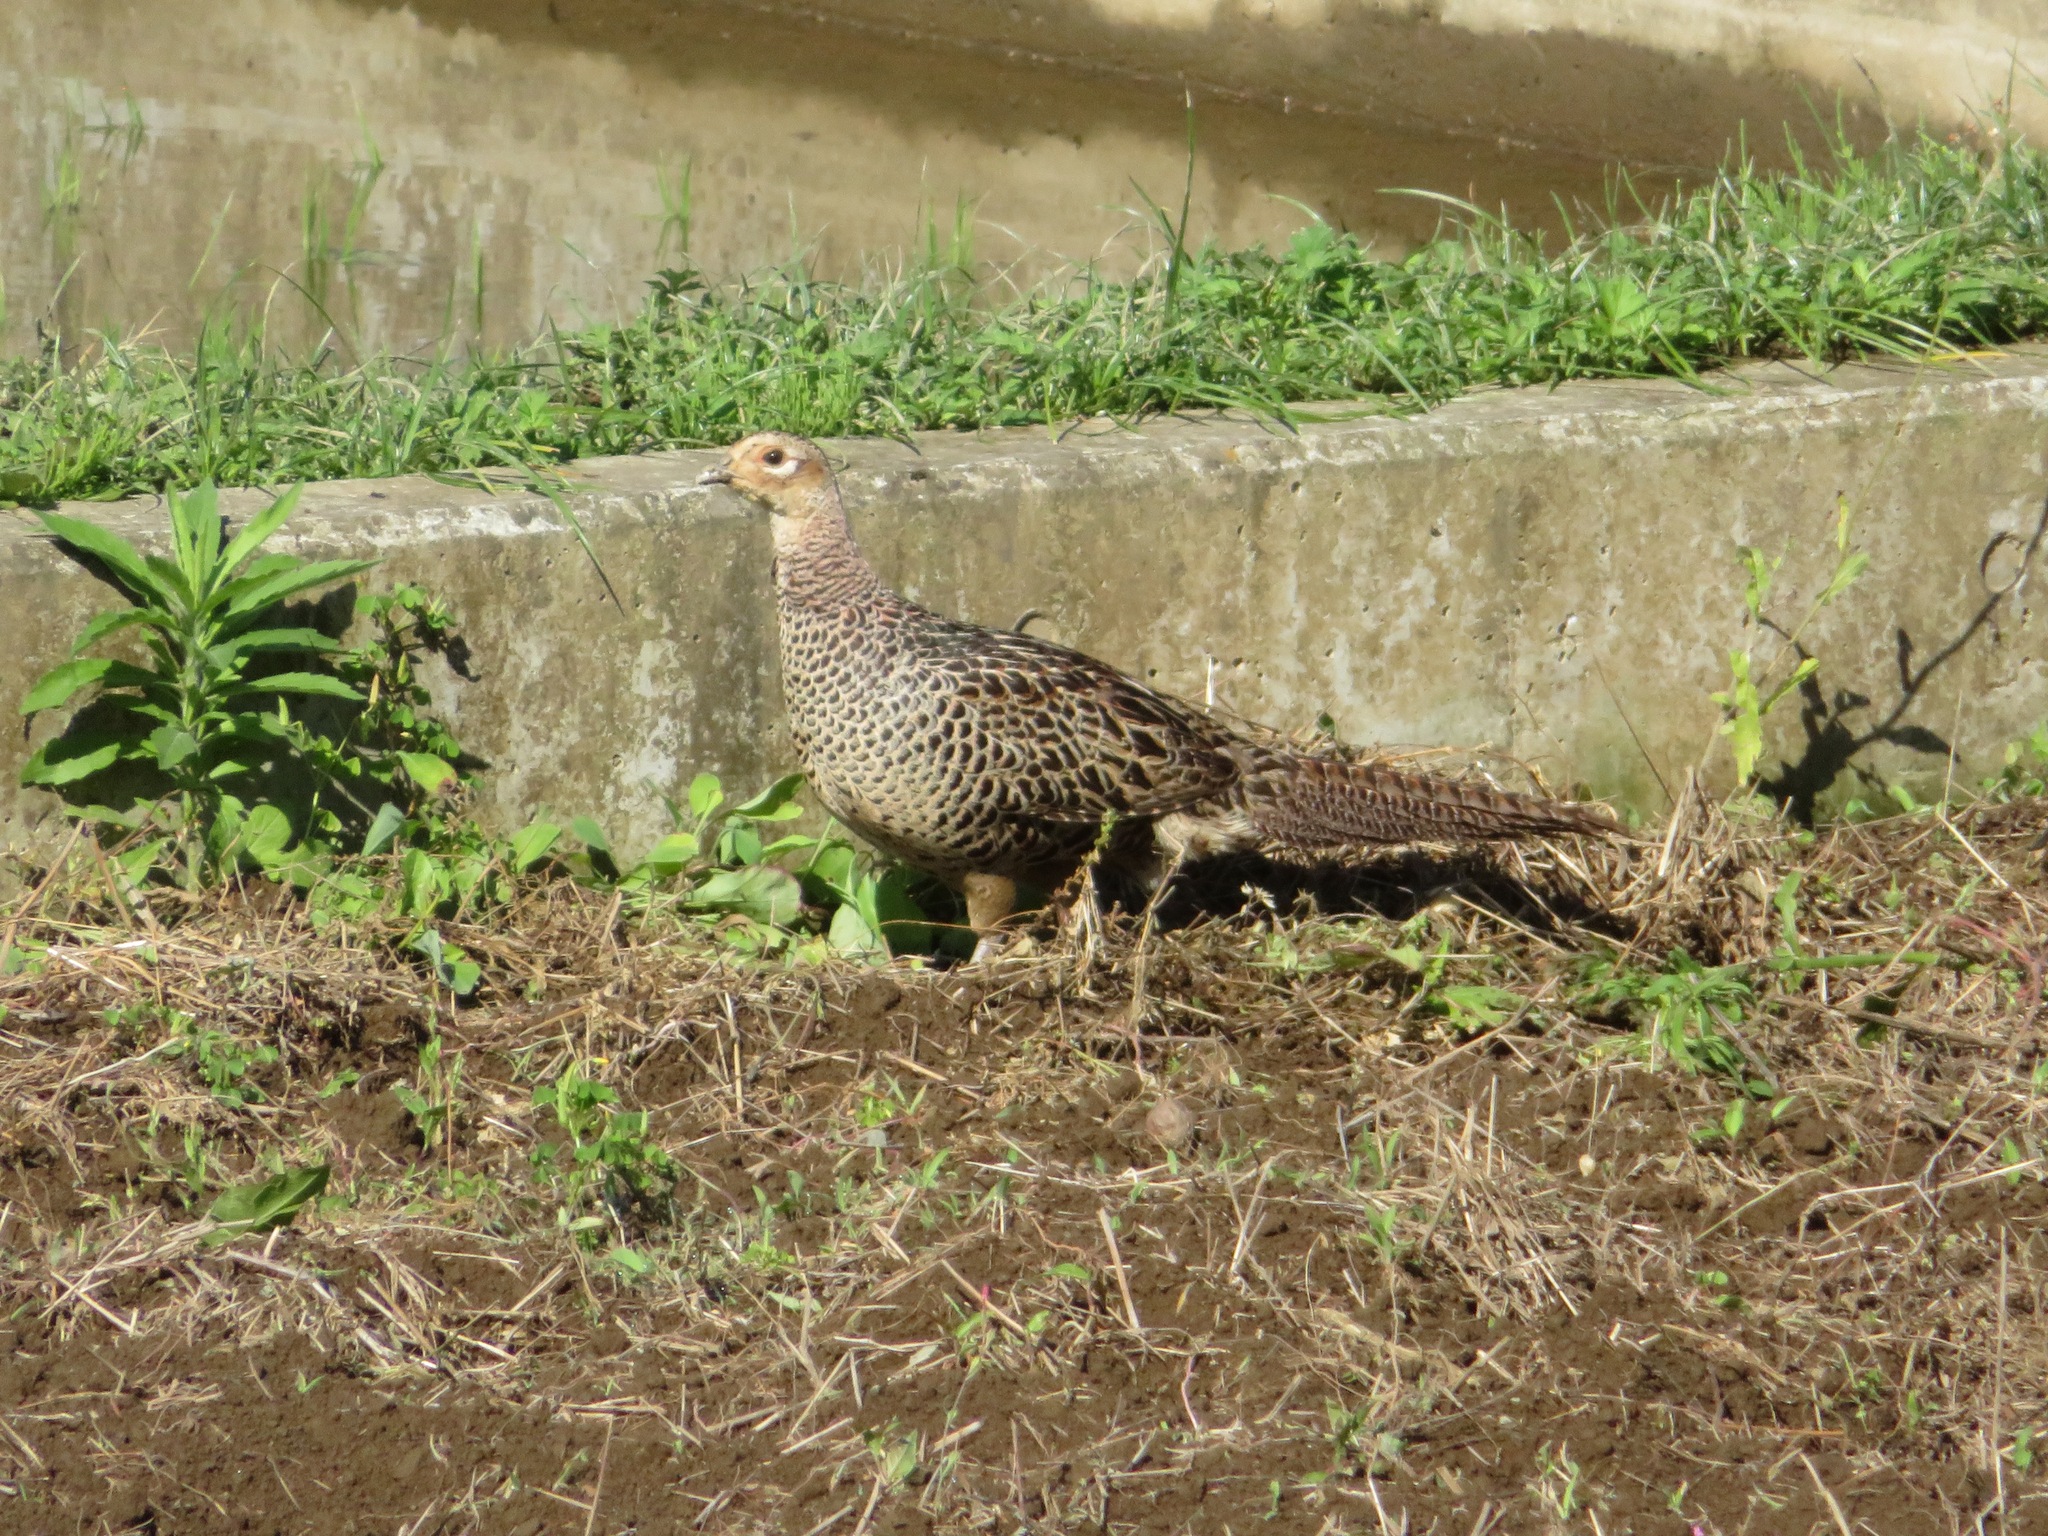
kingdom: Animalia
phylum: Chordata
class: Aves
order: Galliformes
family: Phasianidae
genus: Phasianus
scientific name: Phasianus versicolor
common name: Green pheasant
